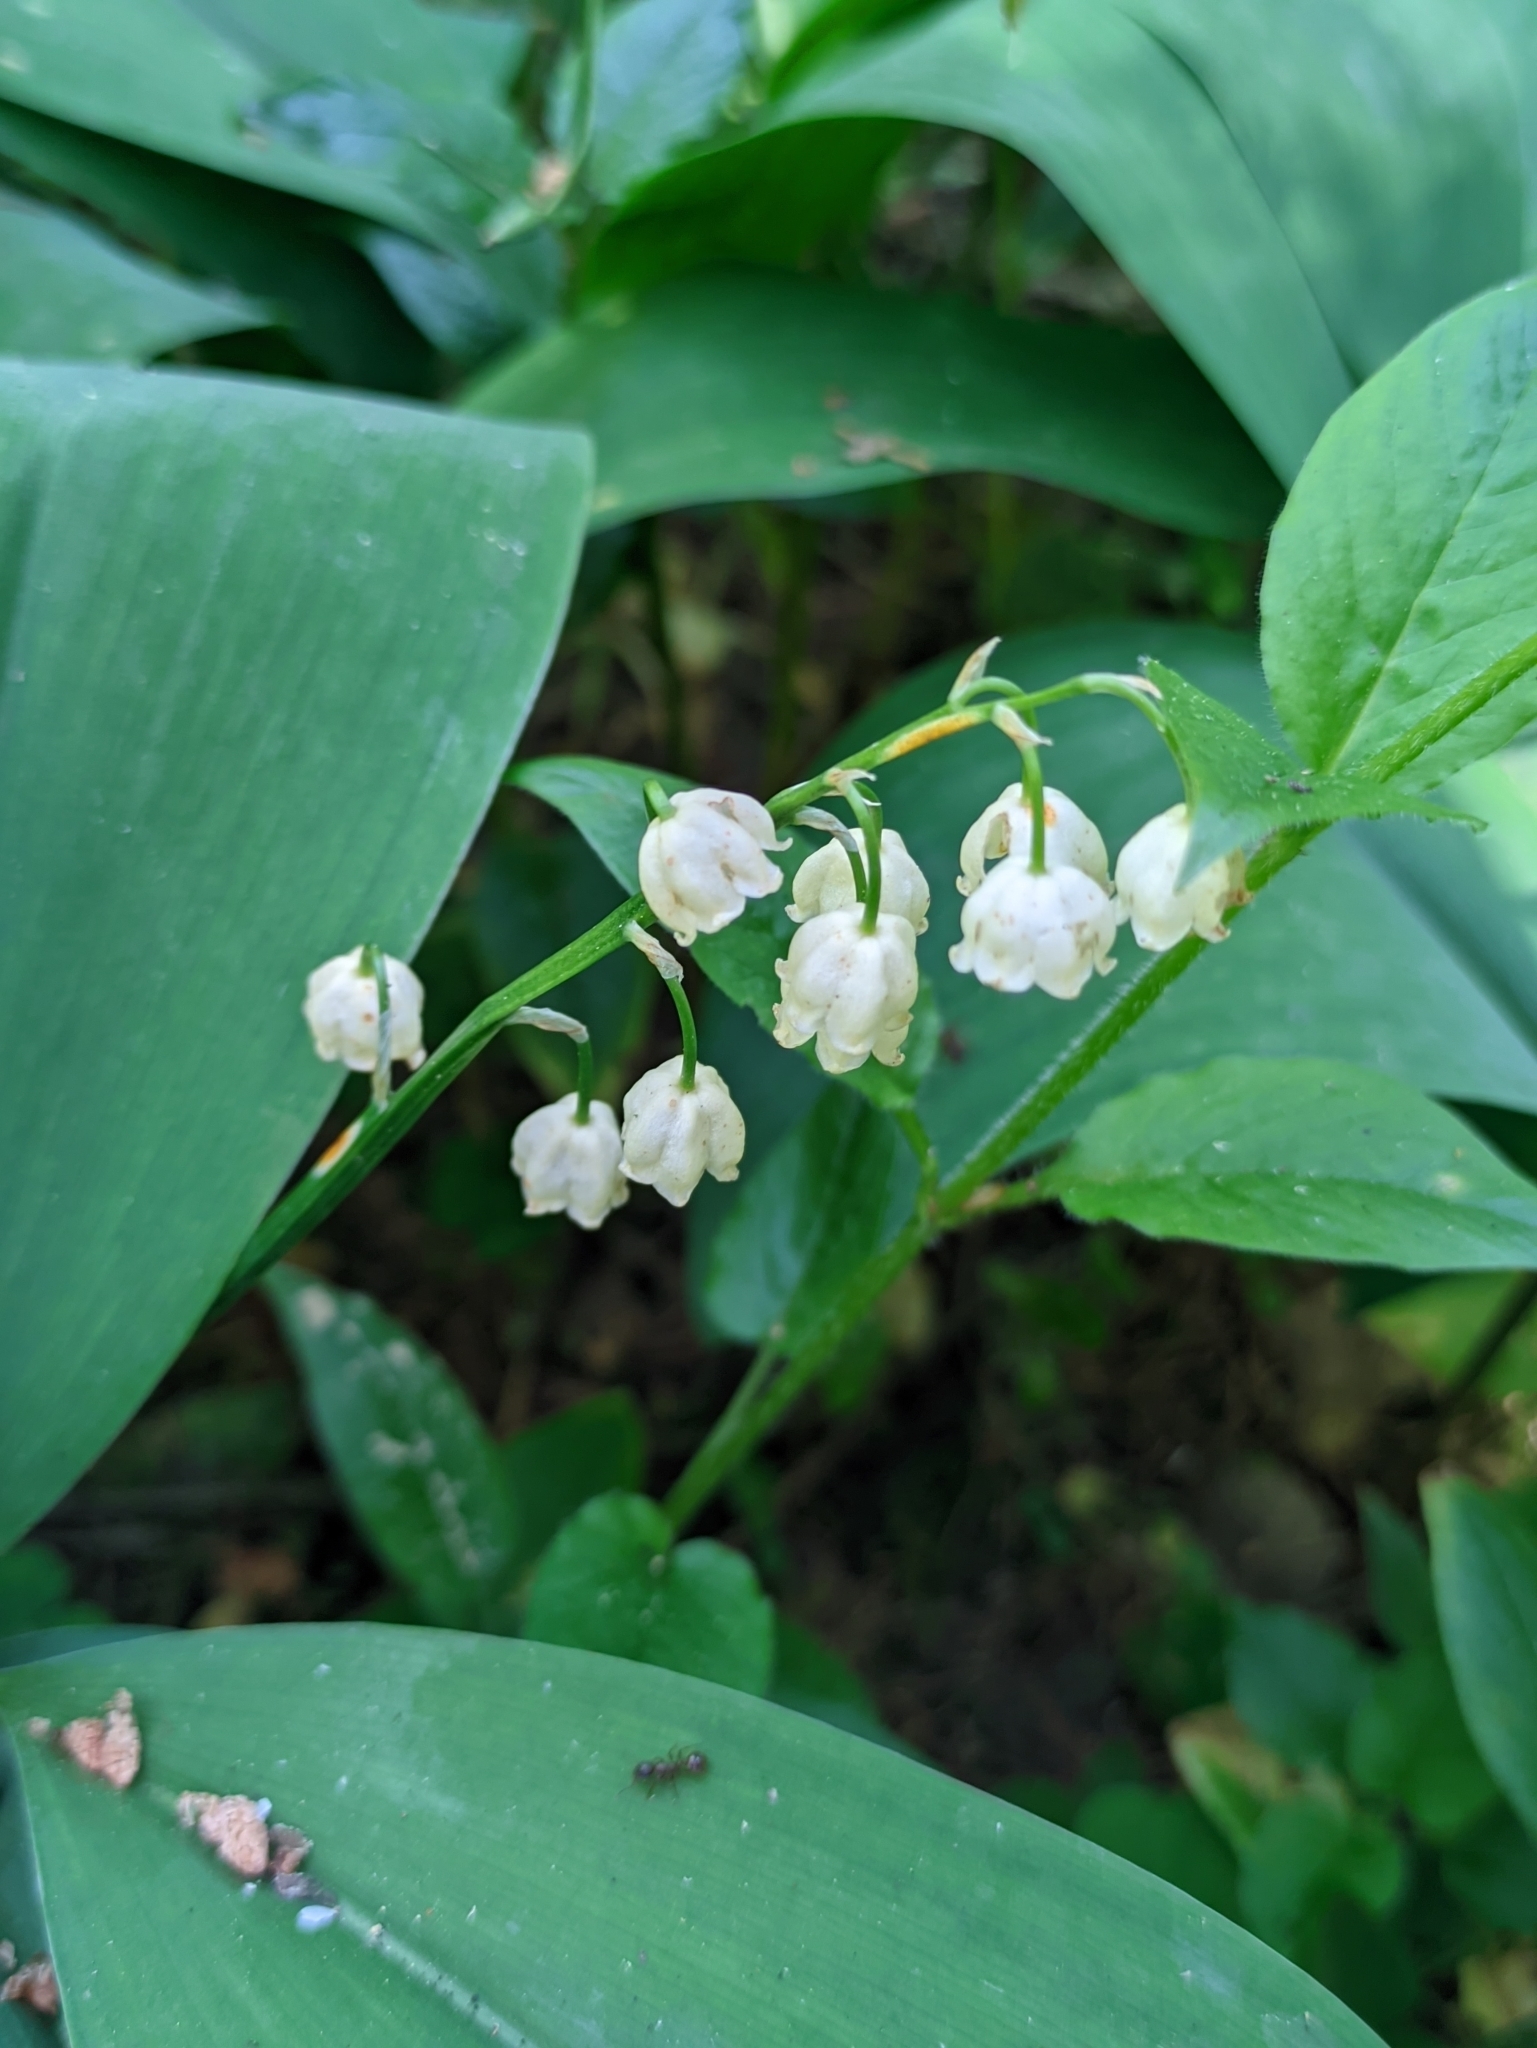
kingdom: Plantae
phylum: Tracheophyta
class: Liliopsida
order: Asparagales
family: Asparagaceae
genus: Convallaria
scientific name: Convallaria majalis
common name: Lily-of-the-valley
